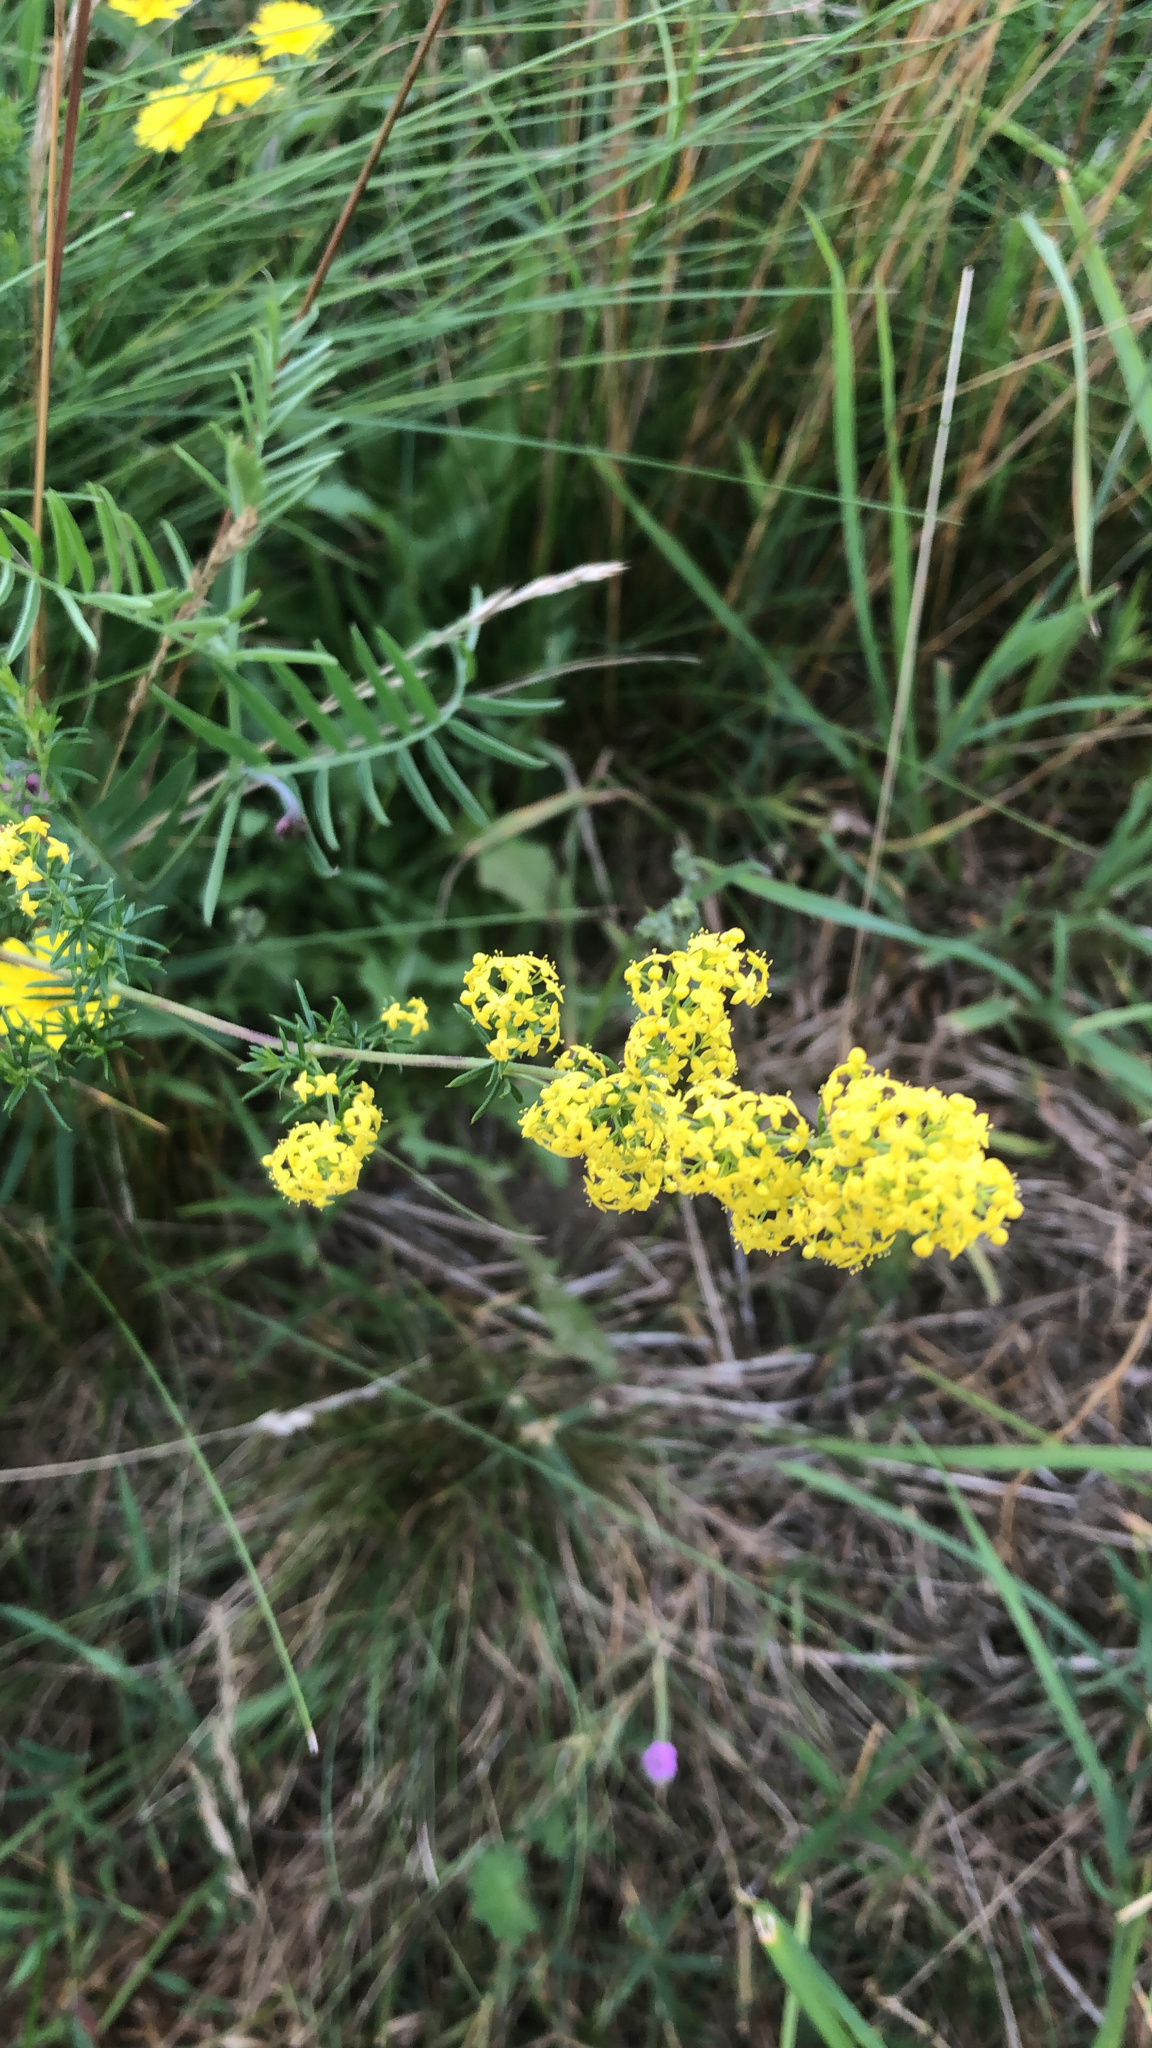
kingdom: Plantae
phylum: Tracheophyta
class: Magnoliopsida
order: Gentianales
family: Rubiaceae
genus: Galium
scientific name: Galium verum
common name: Lady's bedstraw
